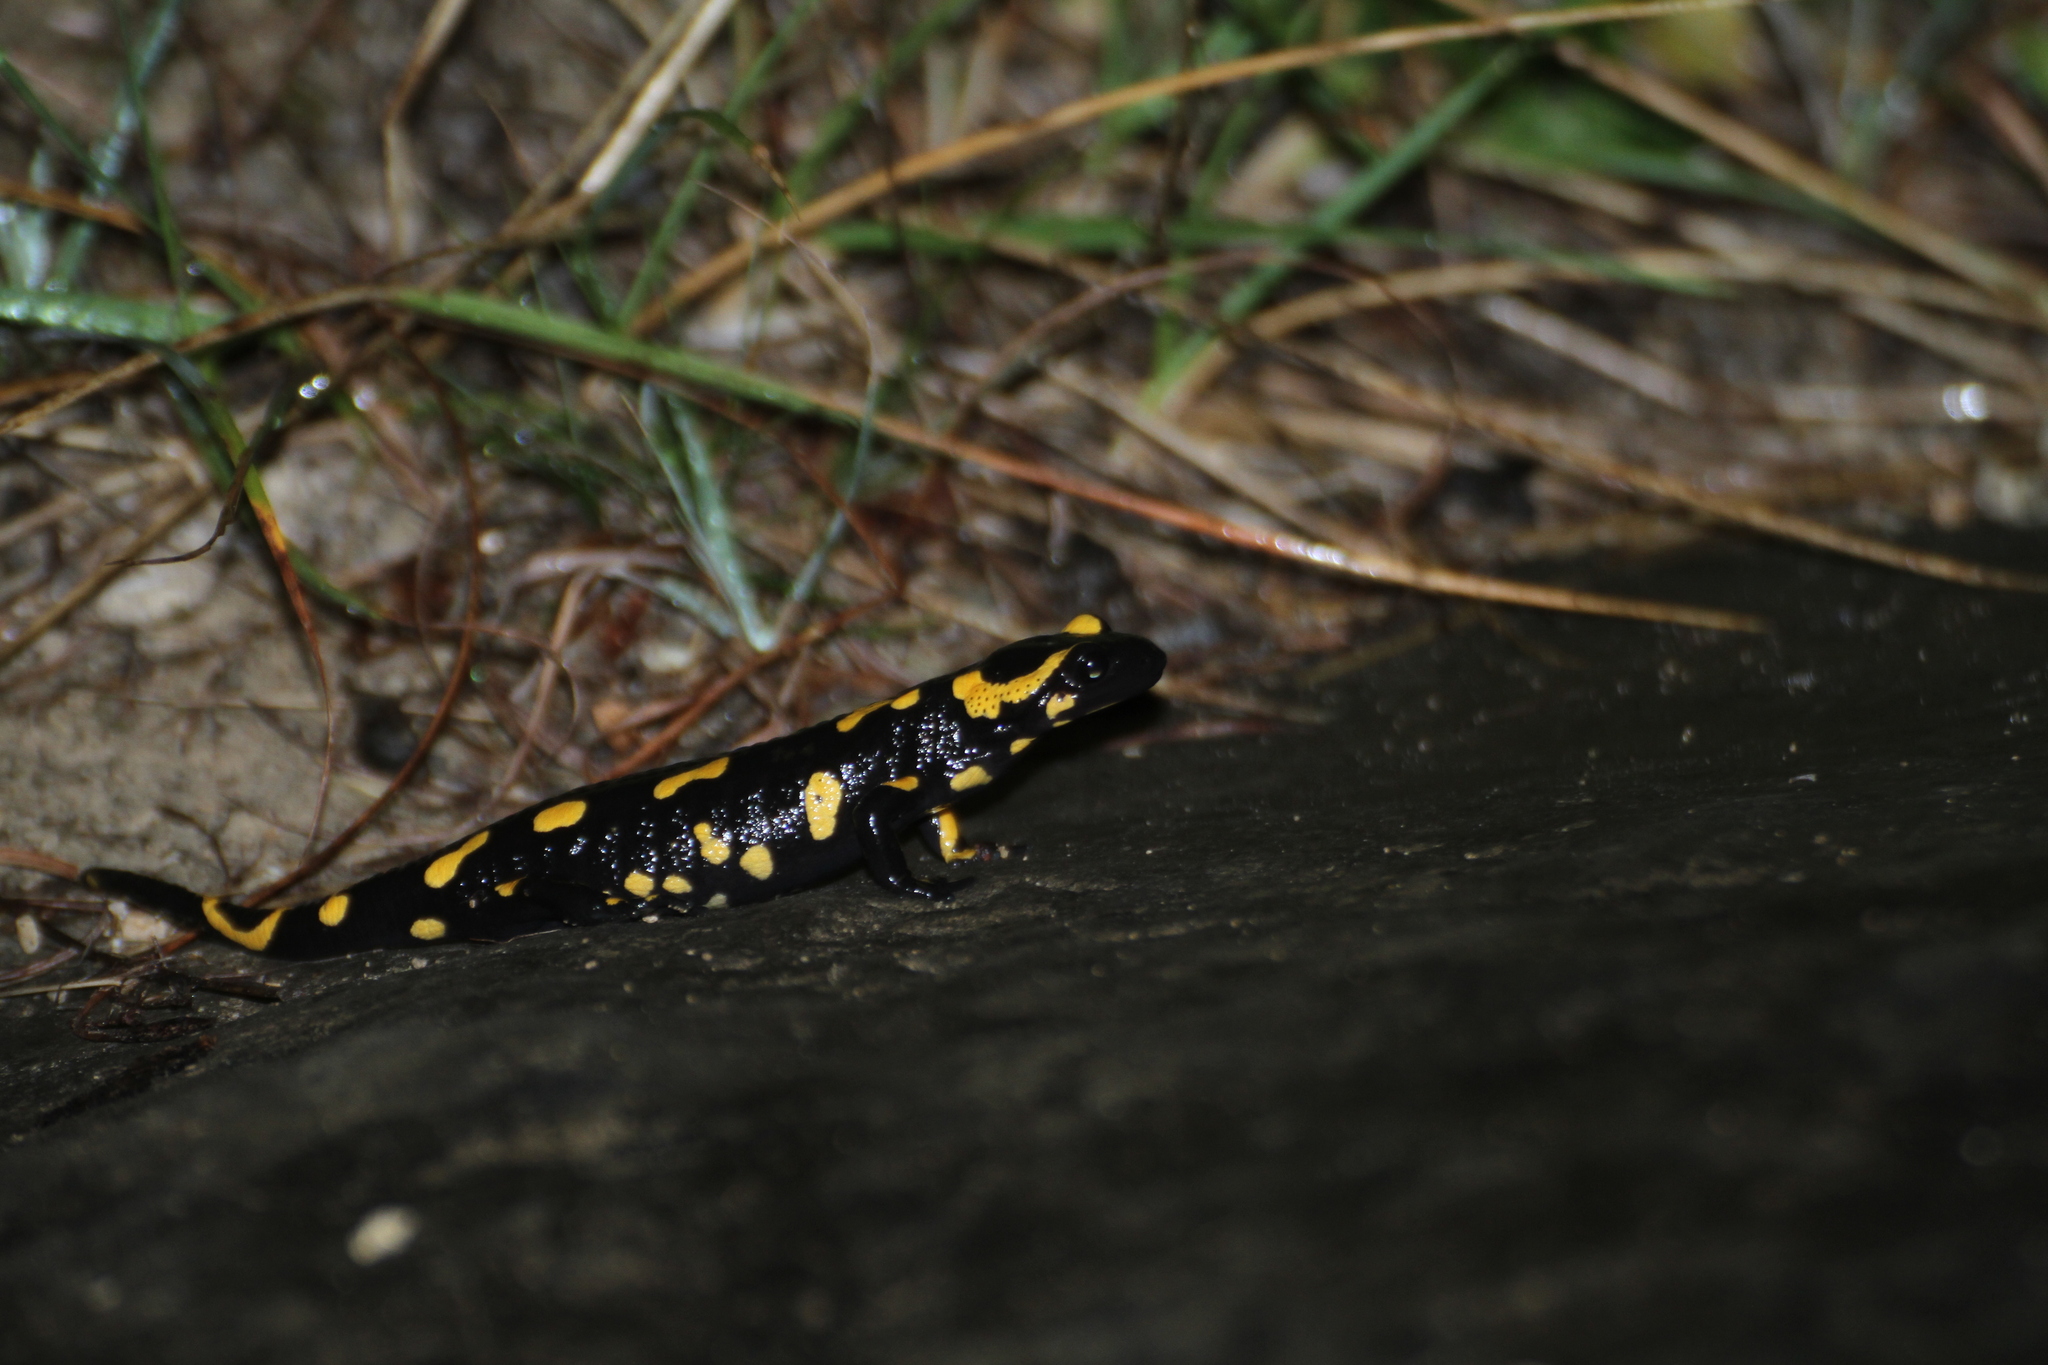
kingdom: Animalia
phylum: Chordata
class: Amphibia
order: Caudata
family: Salamandridae
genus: Salamandra
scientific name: Salamandra salamandra
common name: Fire salamander
